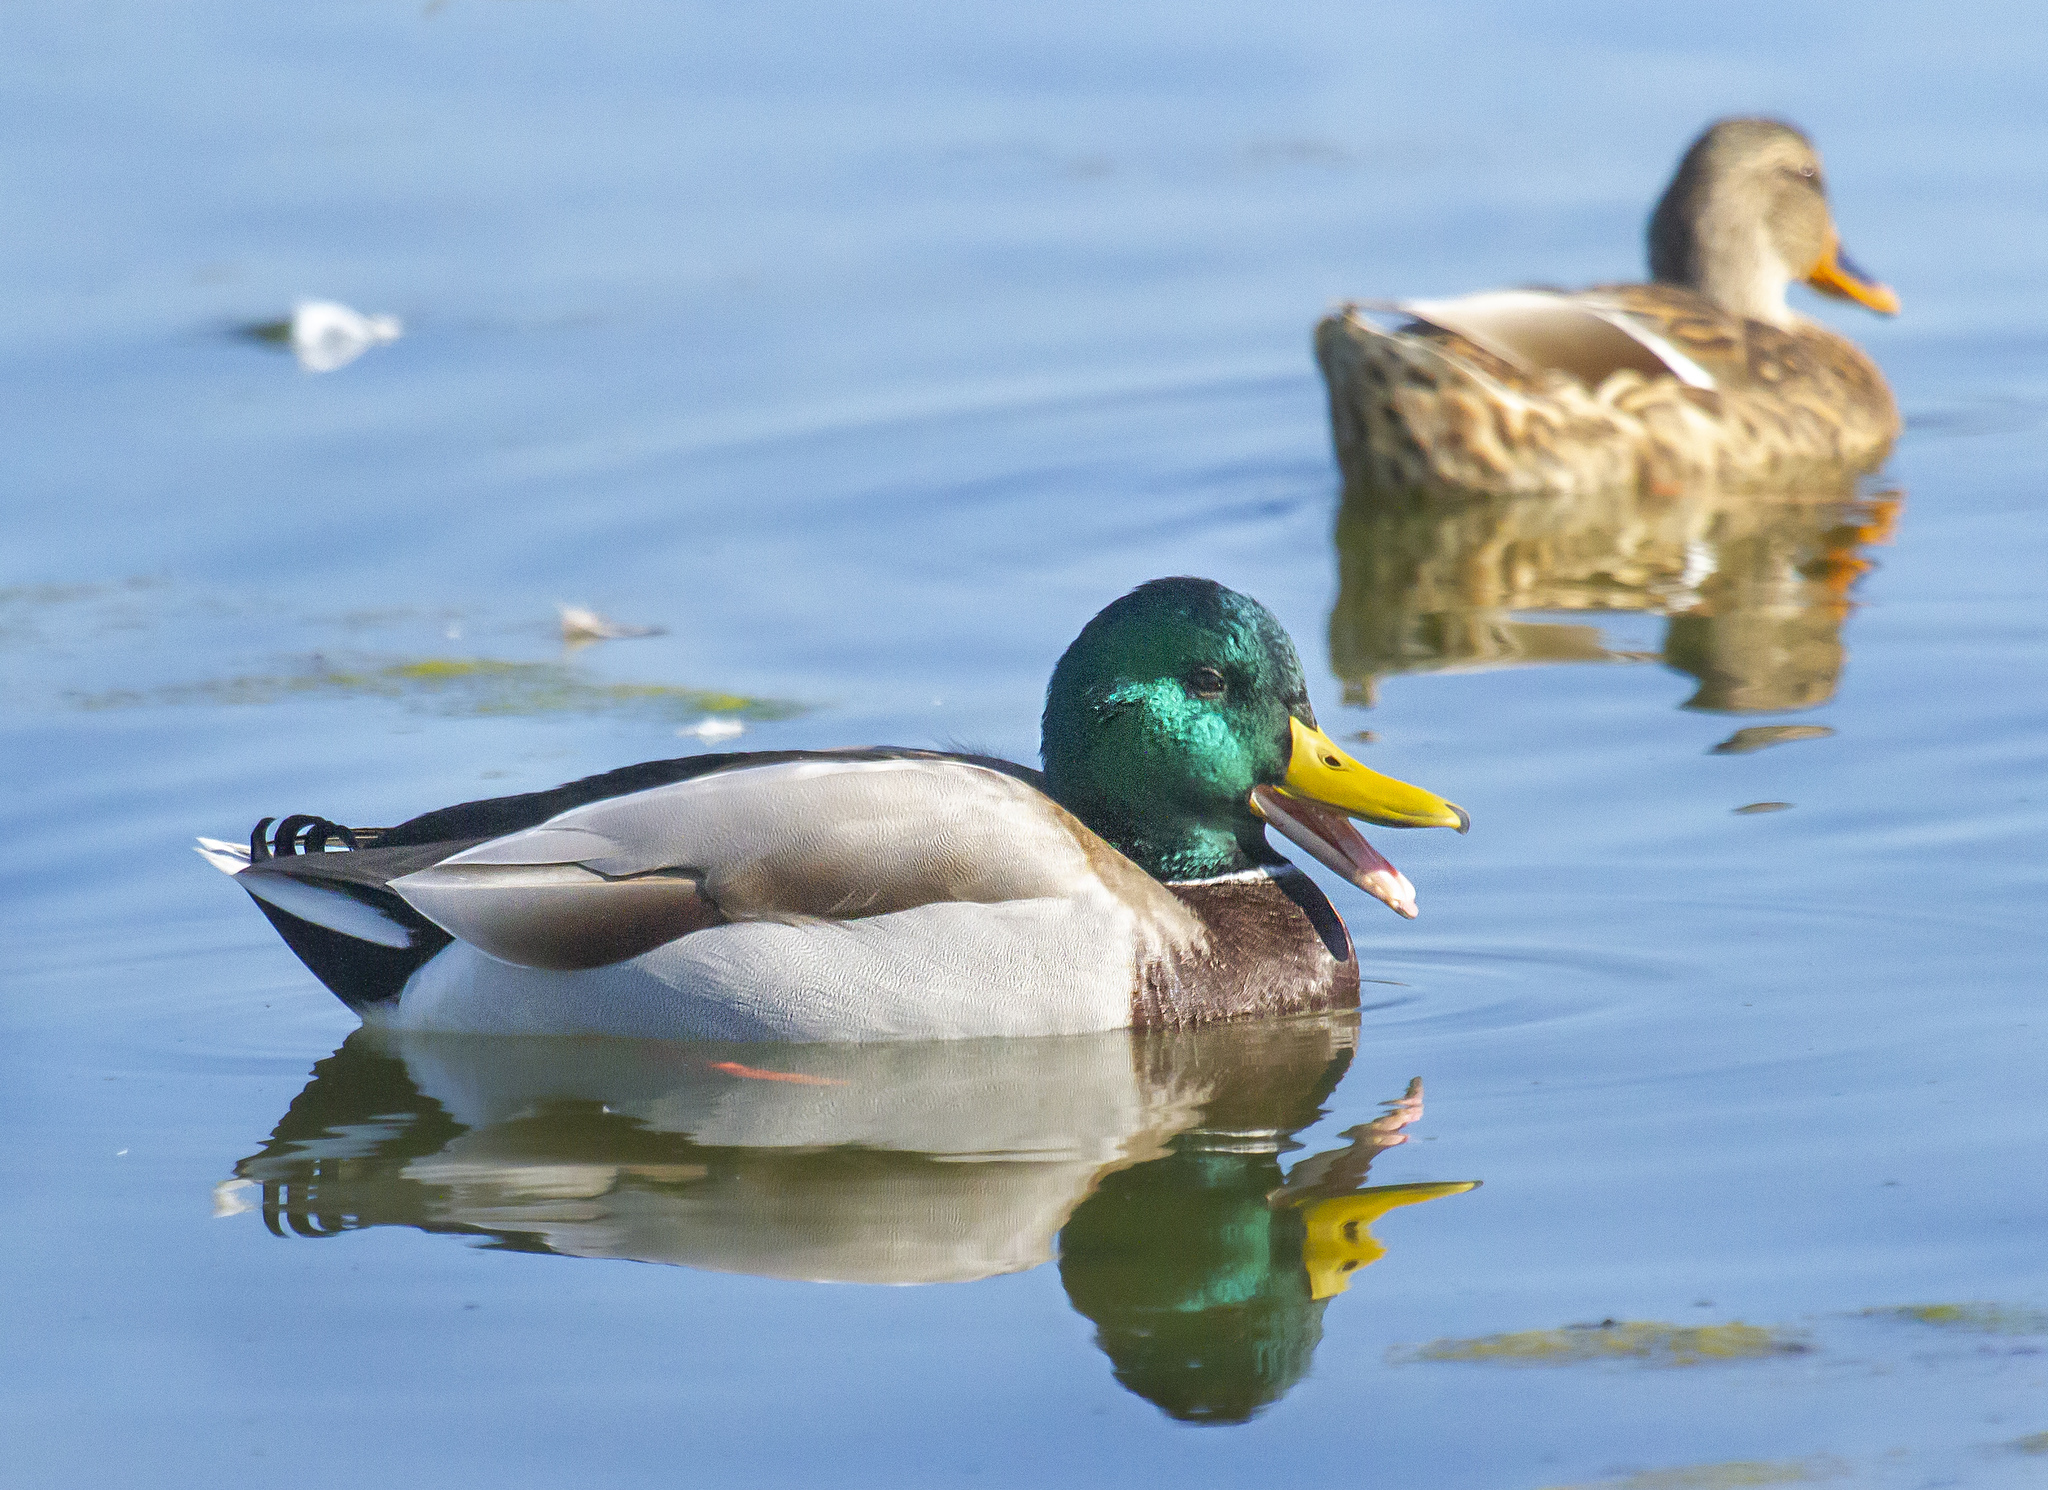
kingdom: Animalia
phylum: Chordata
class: Aves
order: Anseriformes
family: Anatidae
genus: Anas
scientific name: Anas platyrhynchos
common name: Mallard
